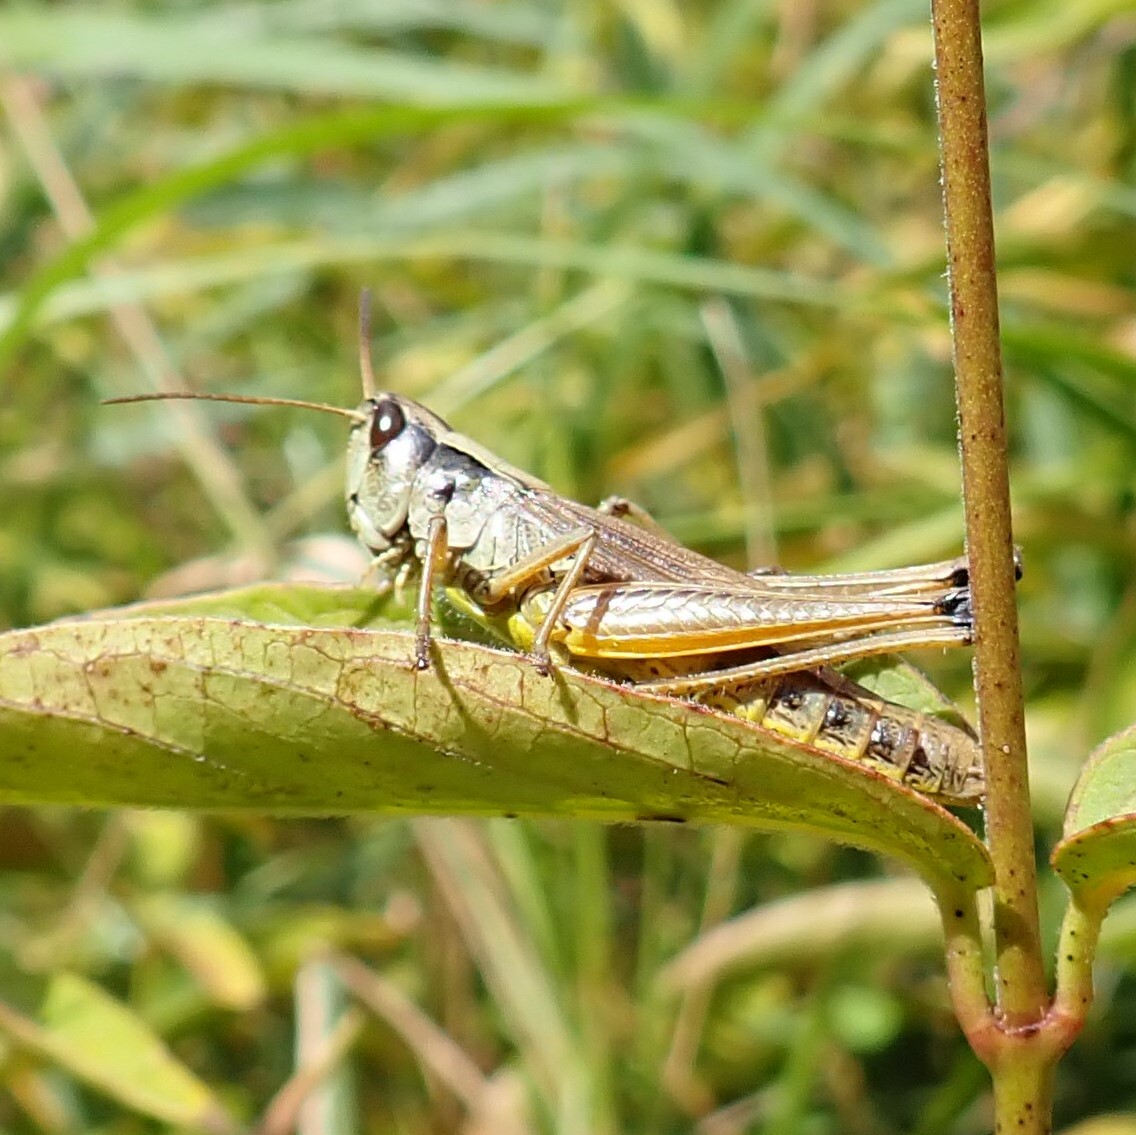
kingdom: Animalia
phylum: Arthropoda
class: Insecta
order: Orthoptera
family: Acrididae
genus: Pseudochorthippus
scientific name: Pseudochorthippus curtipennis
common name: Marsh meadow grasshopper
